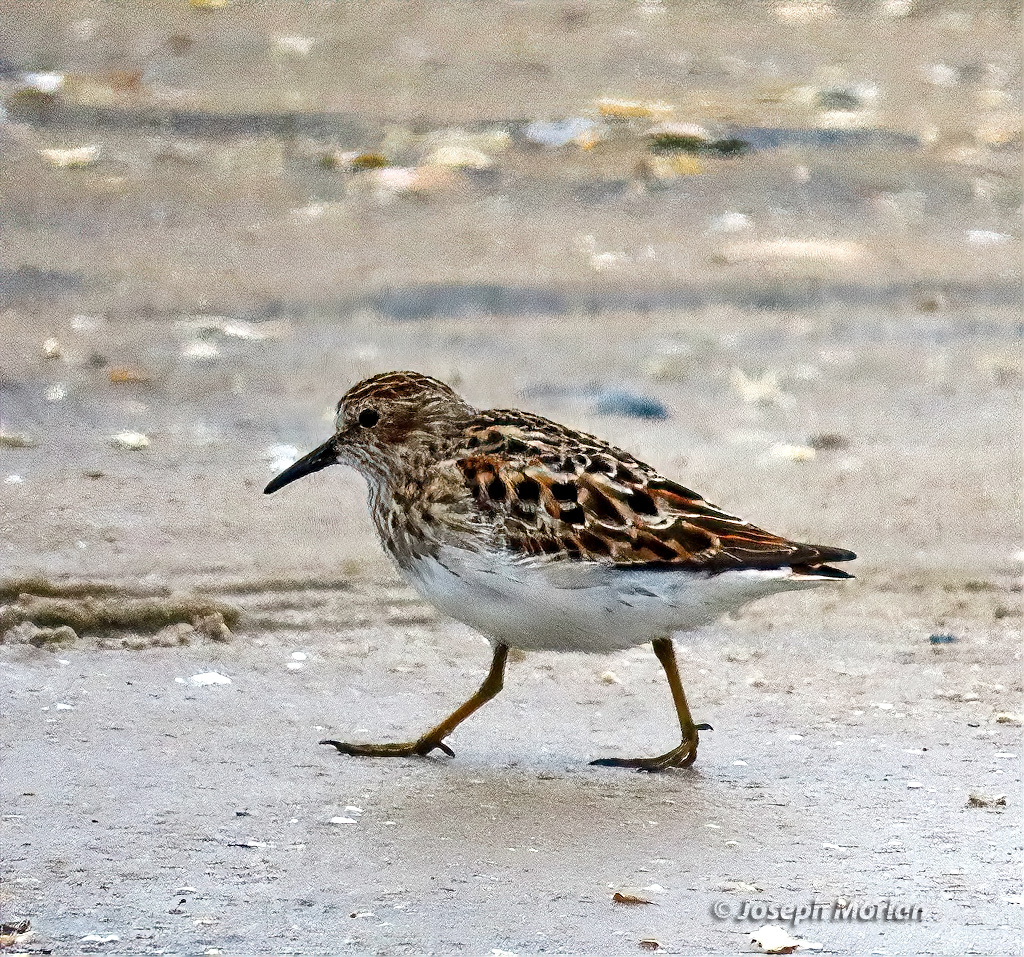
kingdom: Animalia
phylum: Chordata
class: Aves
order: Charadriiformes
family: Scolopacidae
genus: Calidris
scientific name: Calidris minutilla
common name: Least sandpiper
